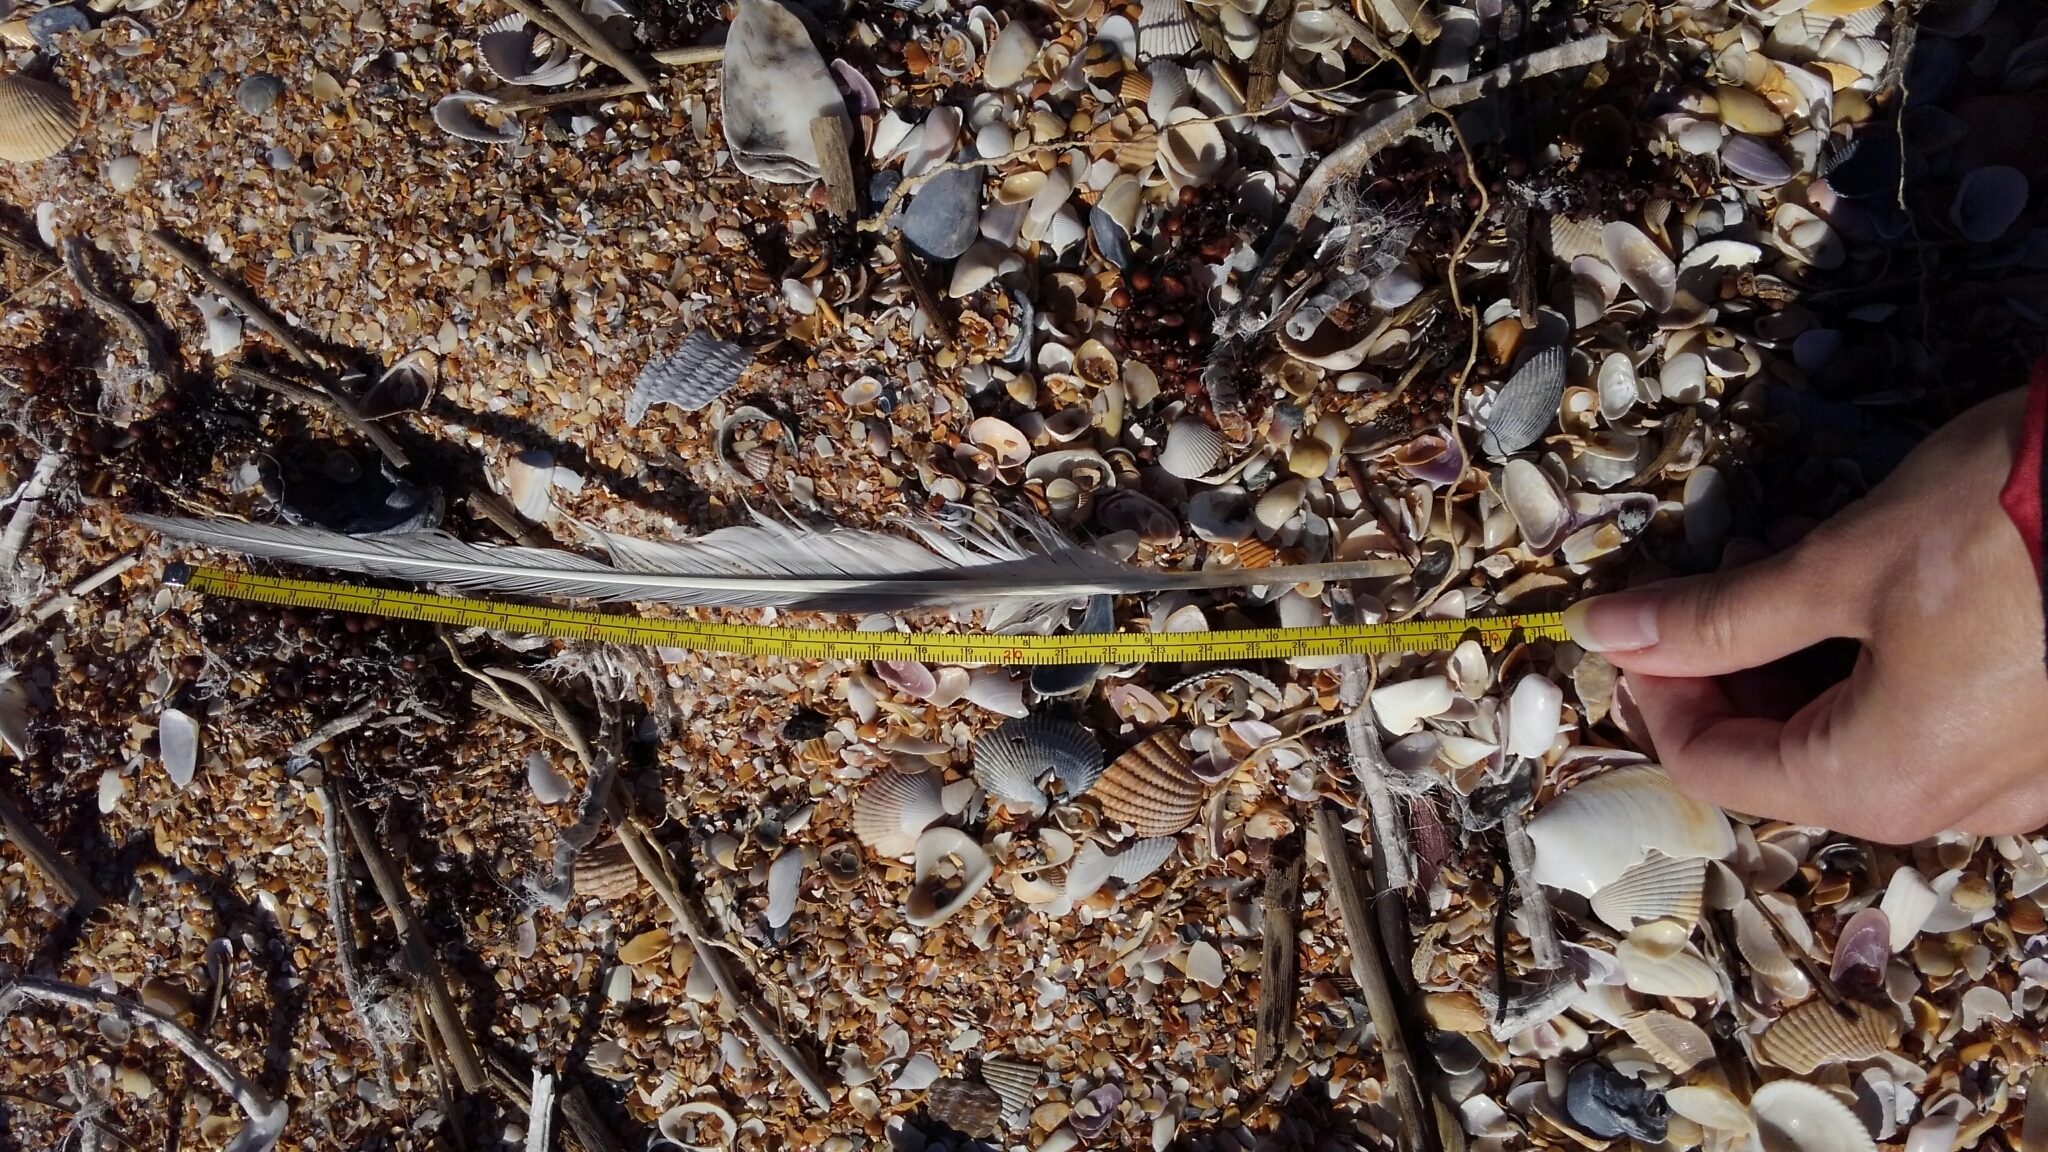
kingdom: Animalia
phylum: Chordata
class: Aves
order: Charadriiformes
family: Laridae
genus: Thalasseus
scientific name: Thalasseus maximus
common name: Royal tern
